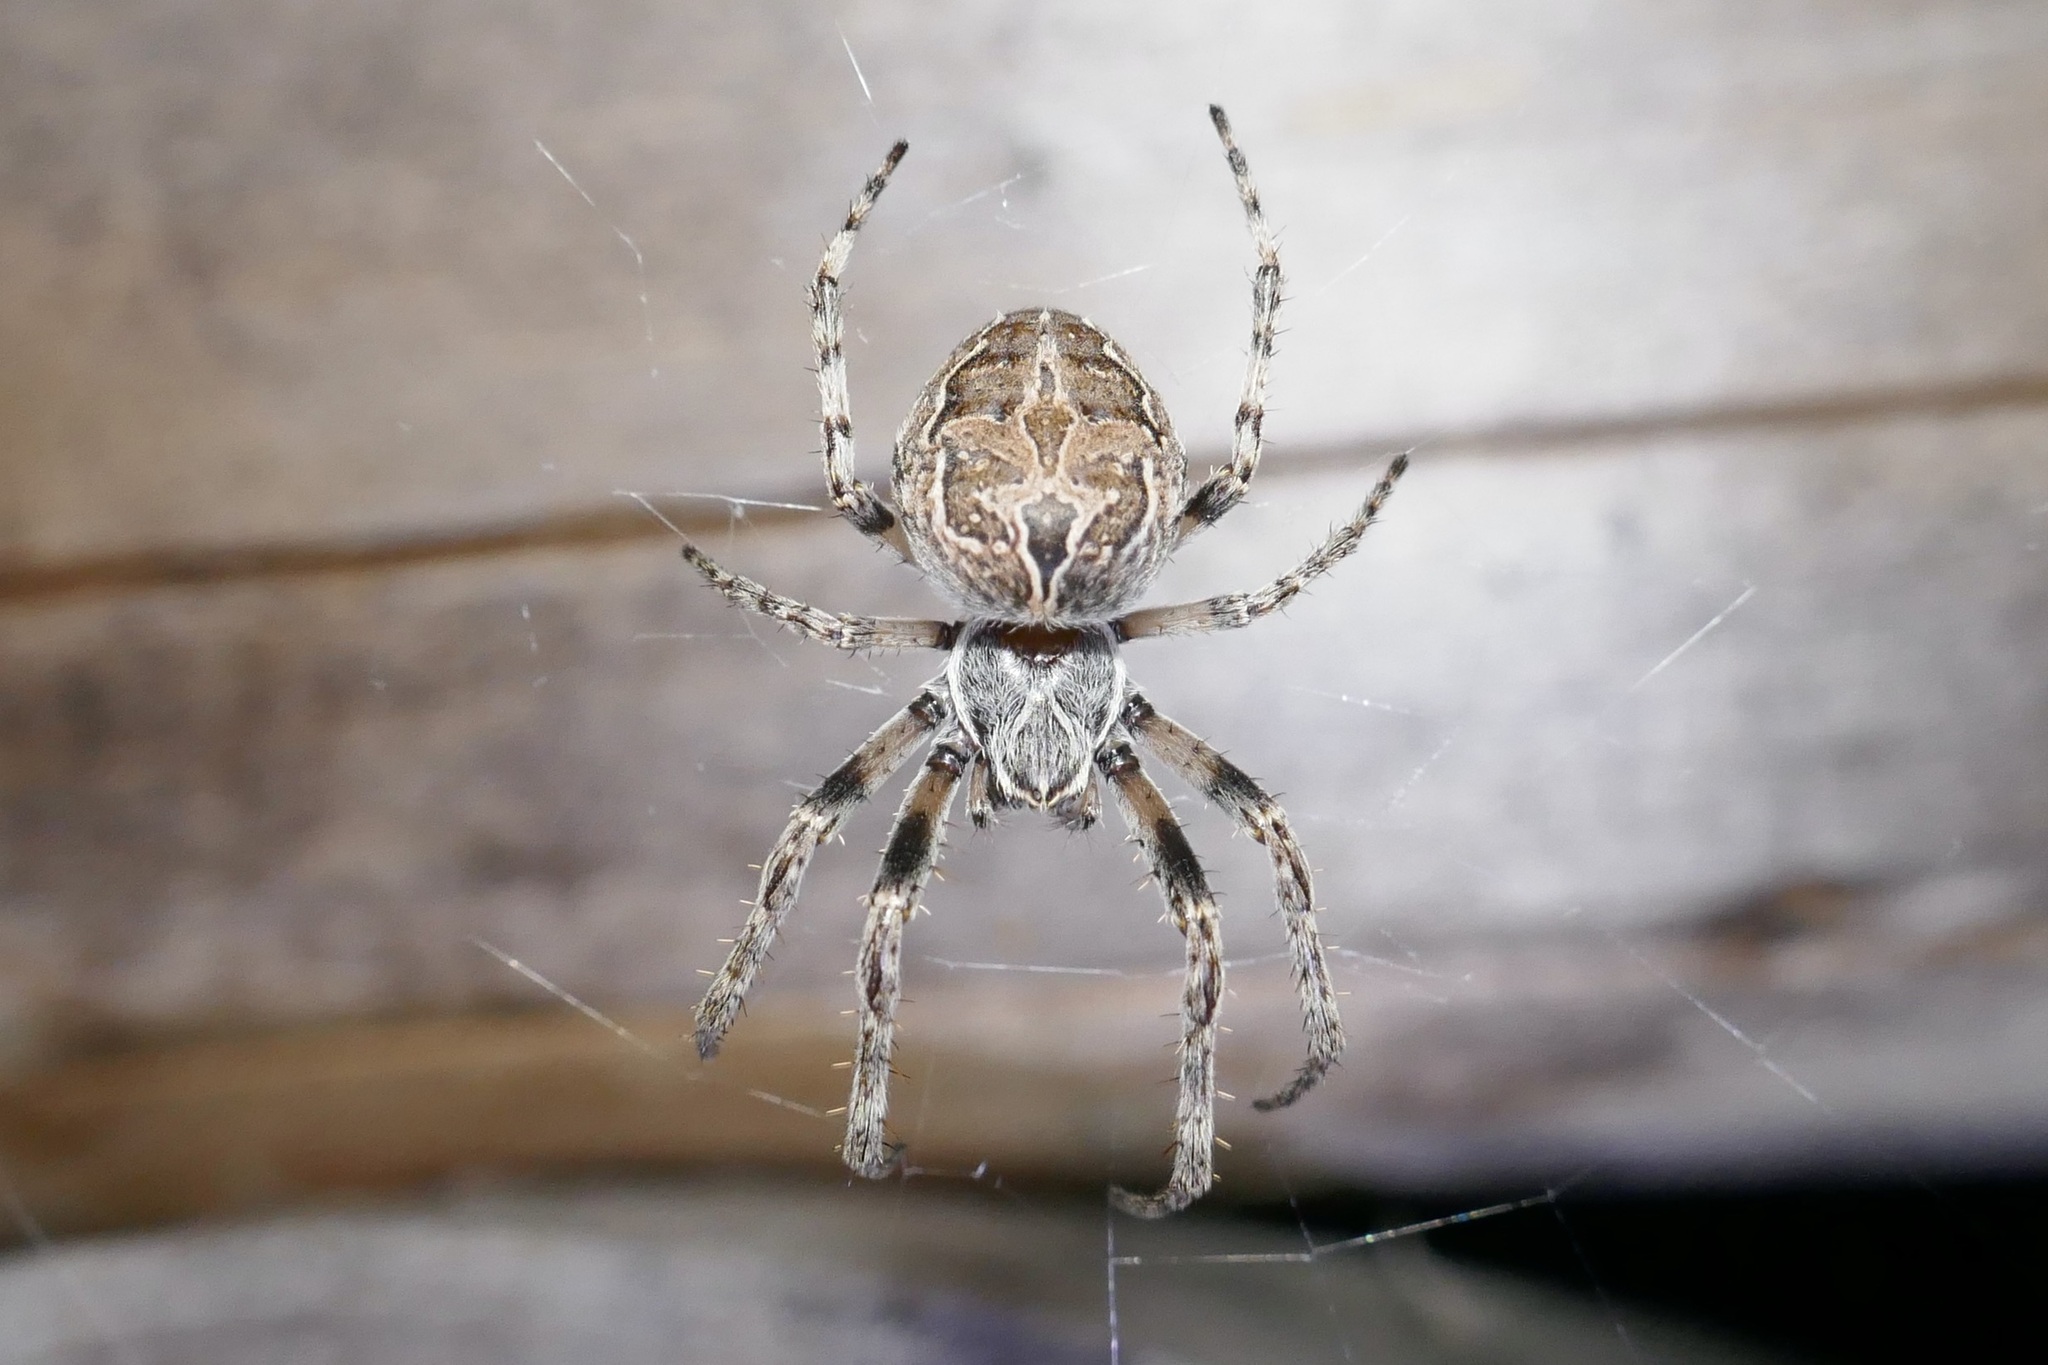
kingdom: Animalia
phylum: Arthropoda
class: Arachnida
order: Araneae
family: Araneidae
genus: Larinioides
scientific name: Larinioides sclopetarius
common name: Bridge orbweaver
